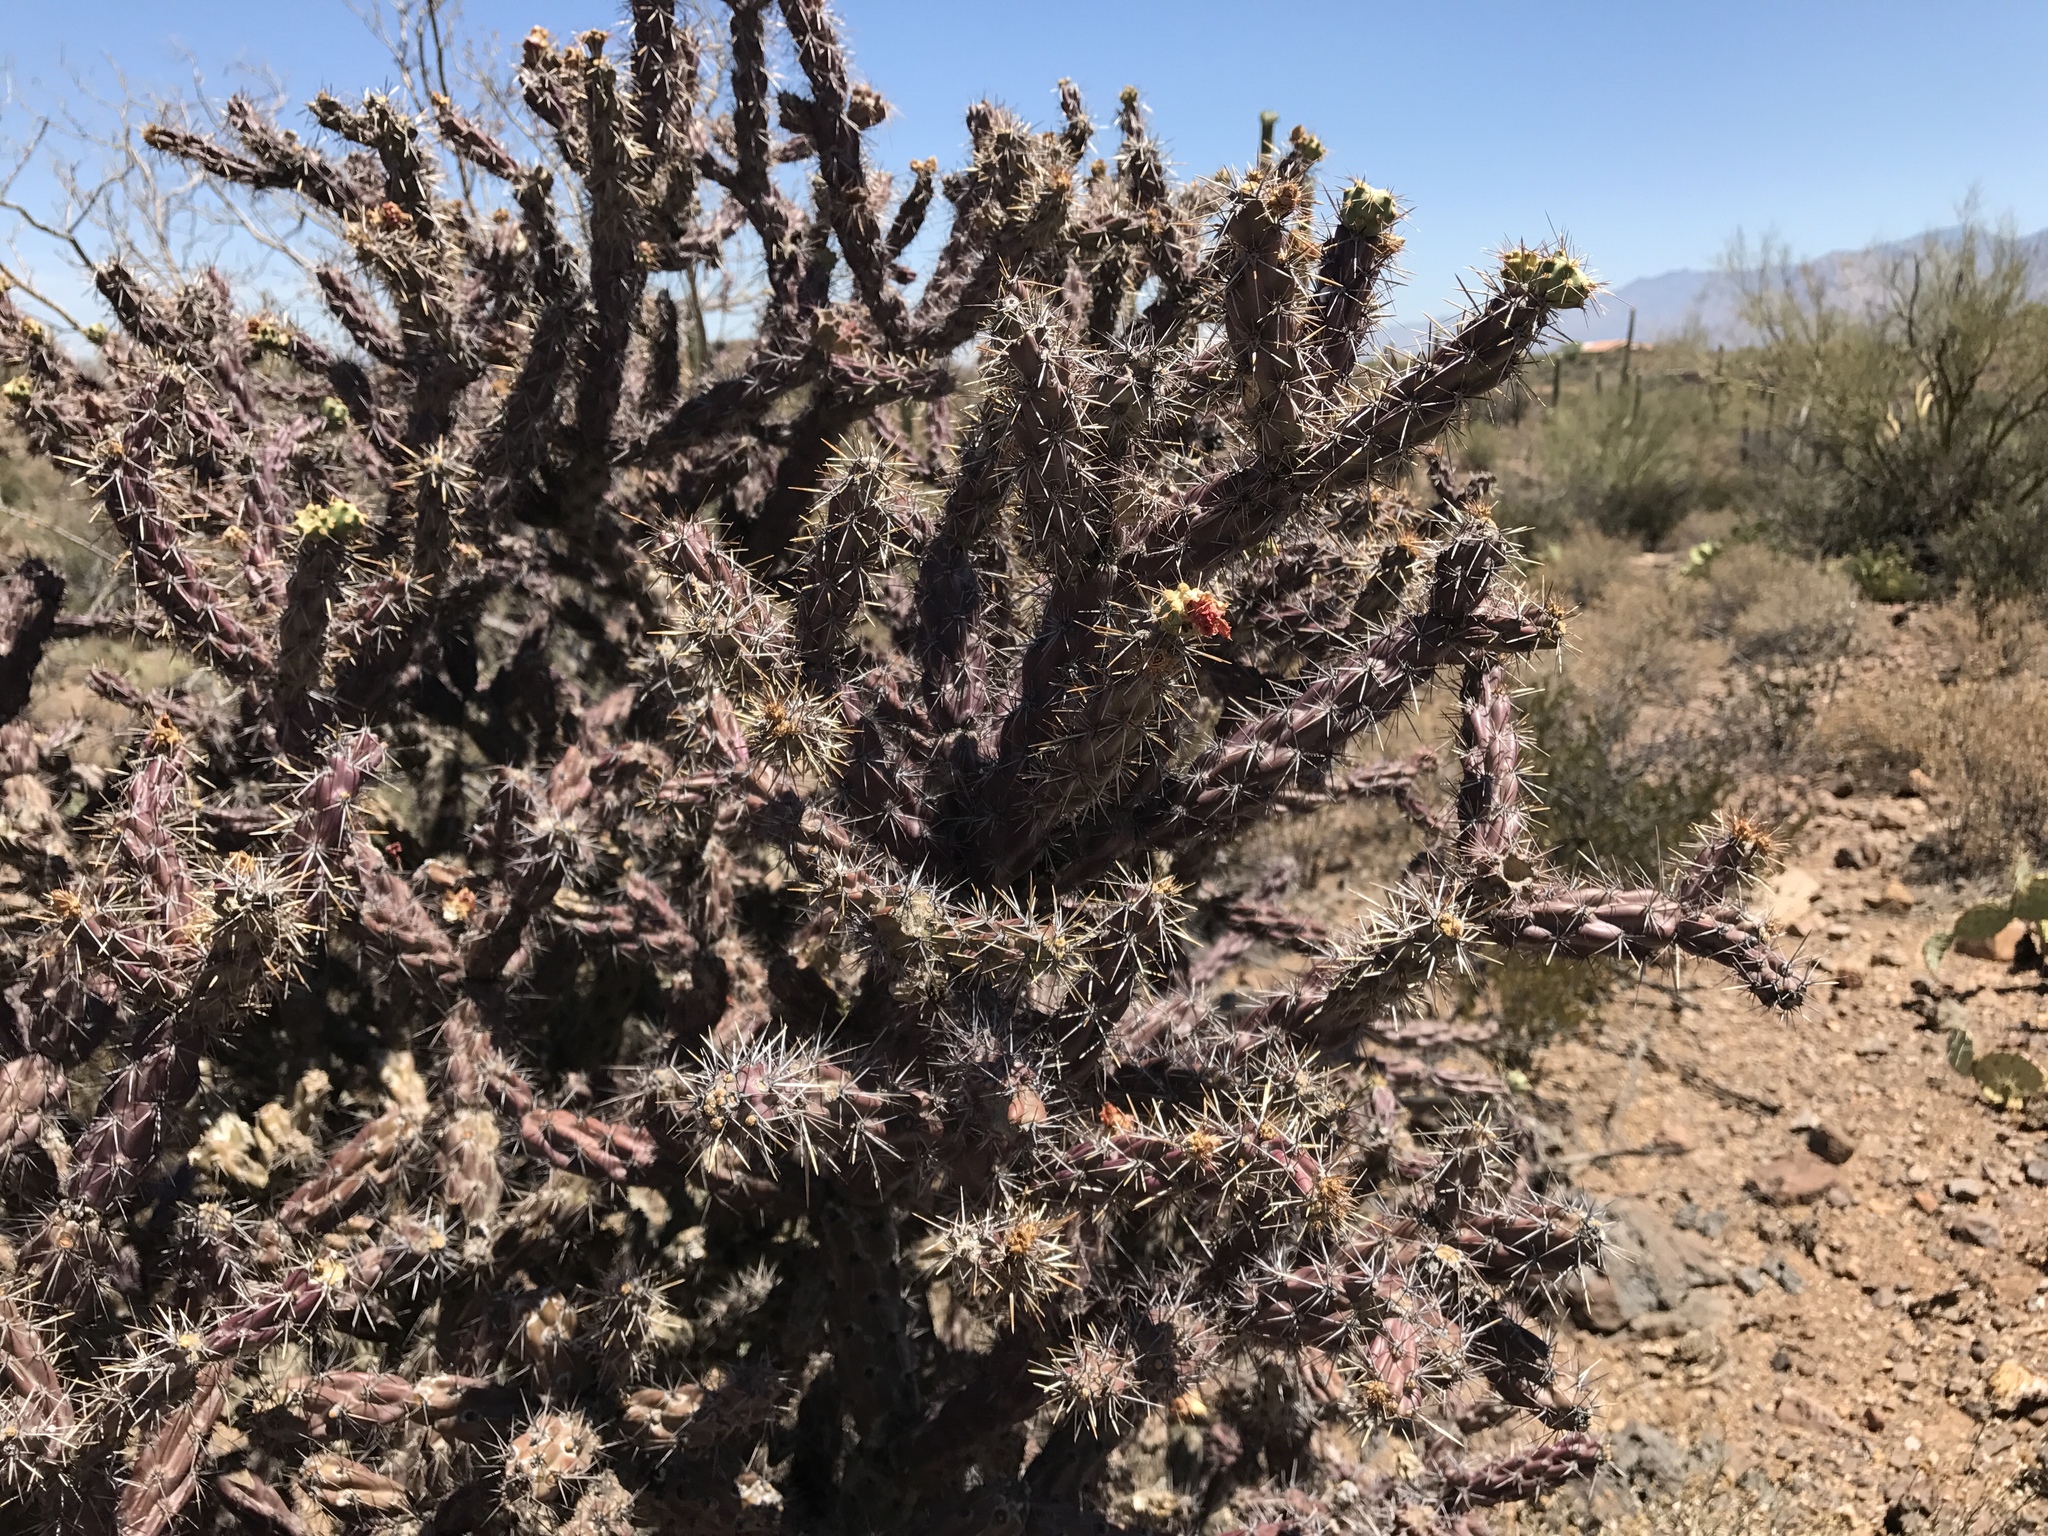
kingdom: Plantae
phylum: Tracheophyta
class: Magnoliopsida
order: Caryophyllales
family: Cactaceae
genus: Cylindropuntia
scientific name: Cylindropuntia acanthocarpa
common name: Buckhorn cholla
